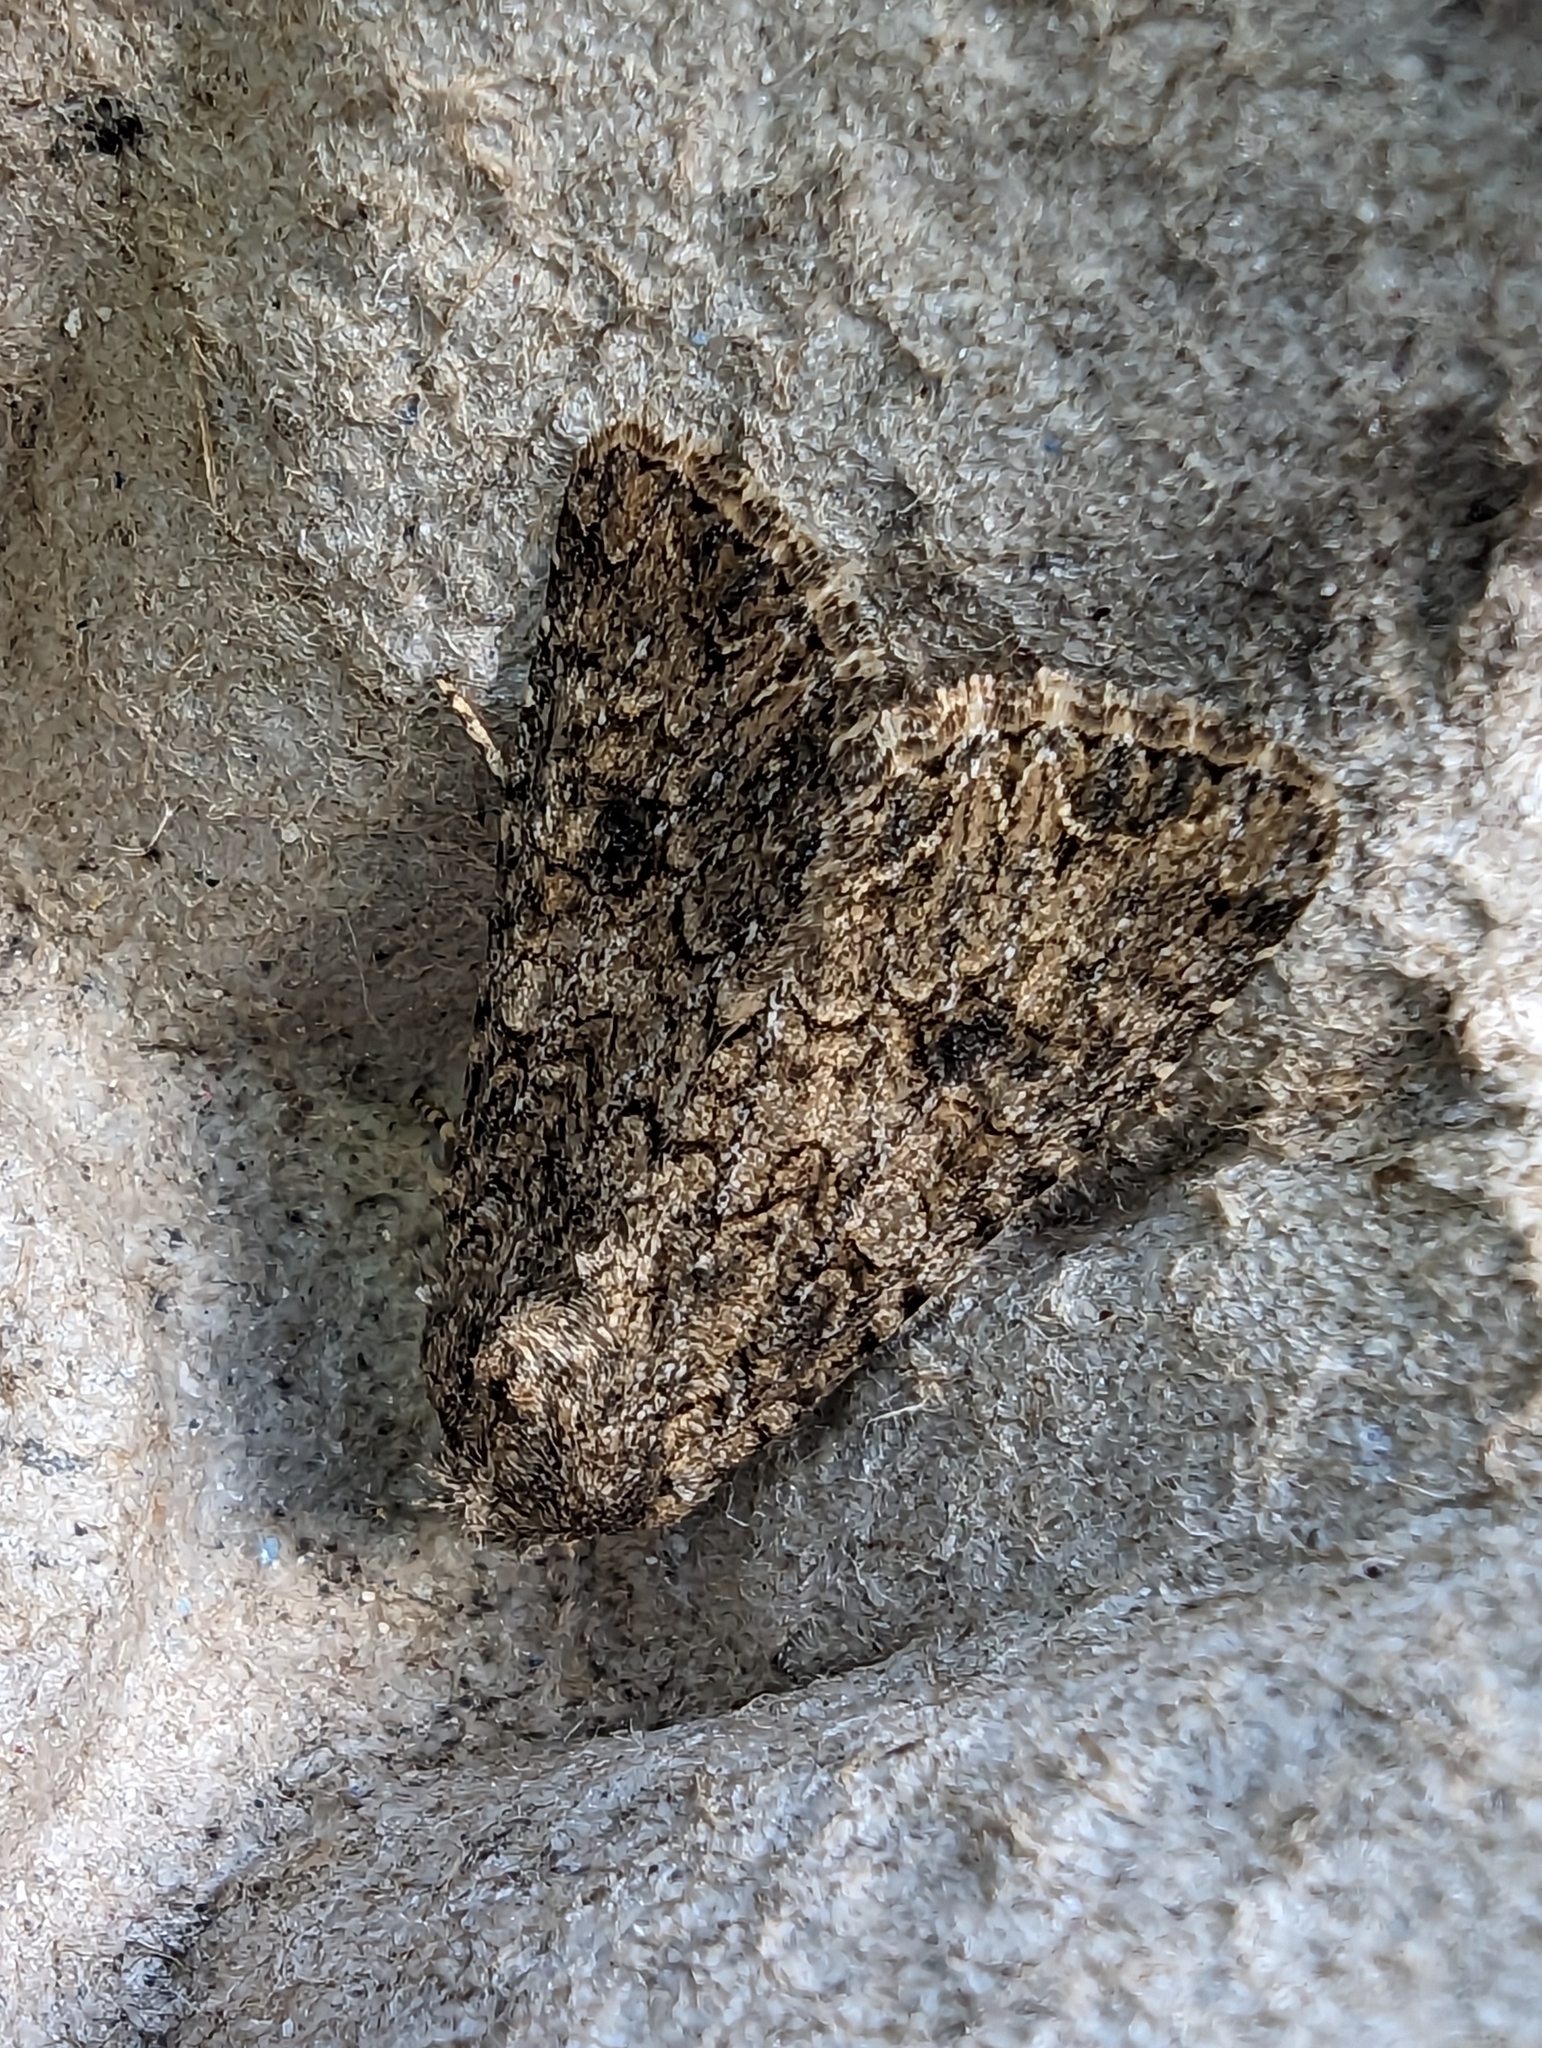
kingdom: Animalia
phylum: Arthropoda
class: Insecta
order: Lepidoptera
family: Noctuidae
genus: Anarta
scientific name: Anarta trifolii
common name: Clover cutworm moth
